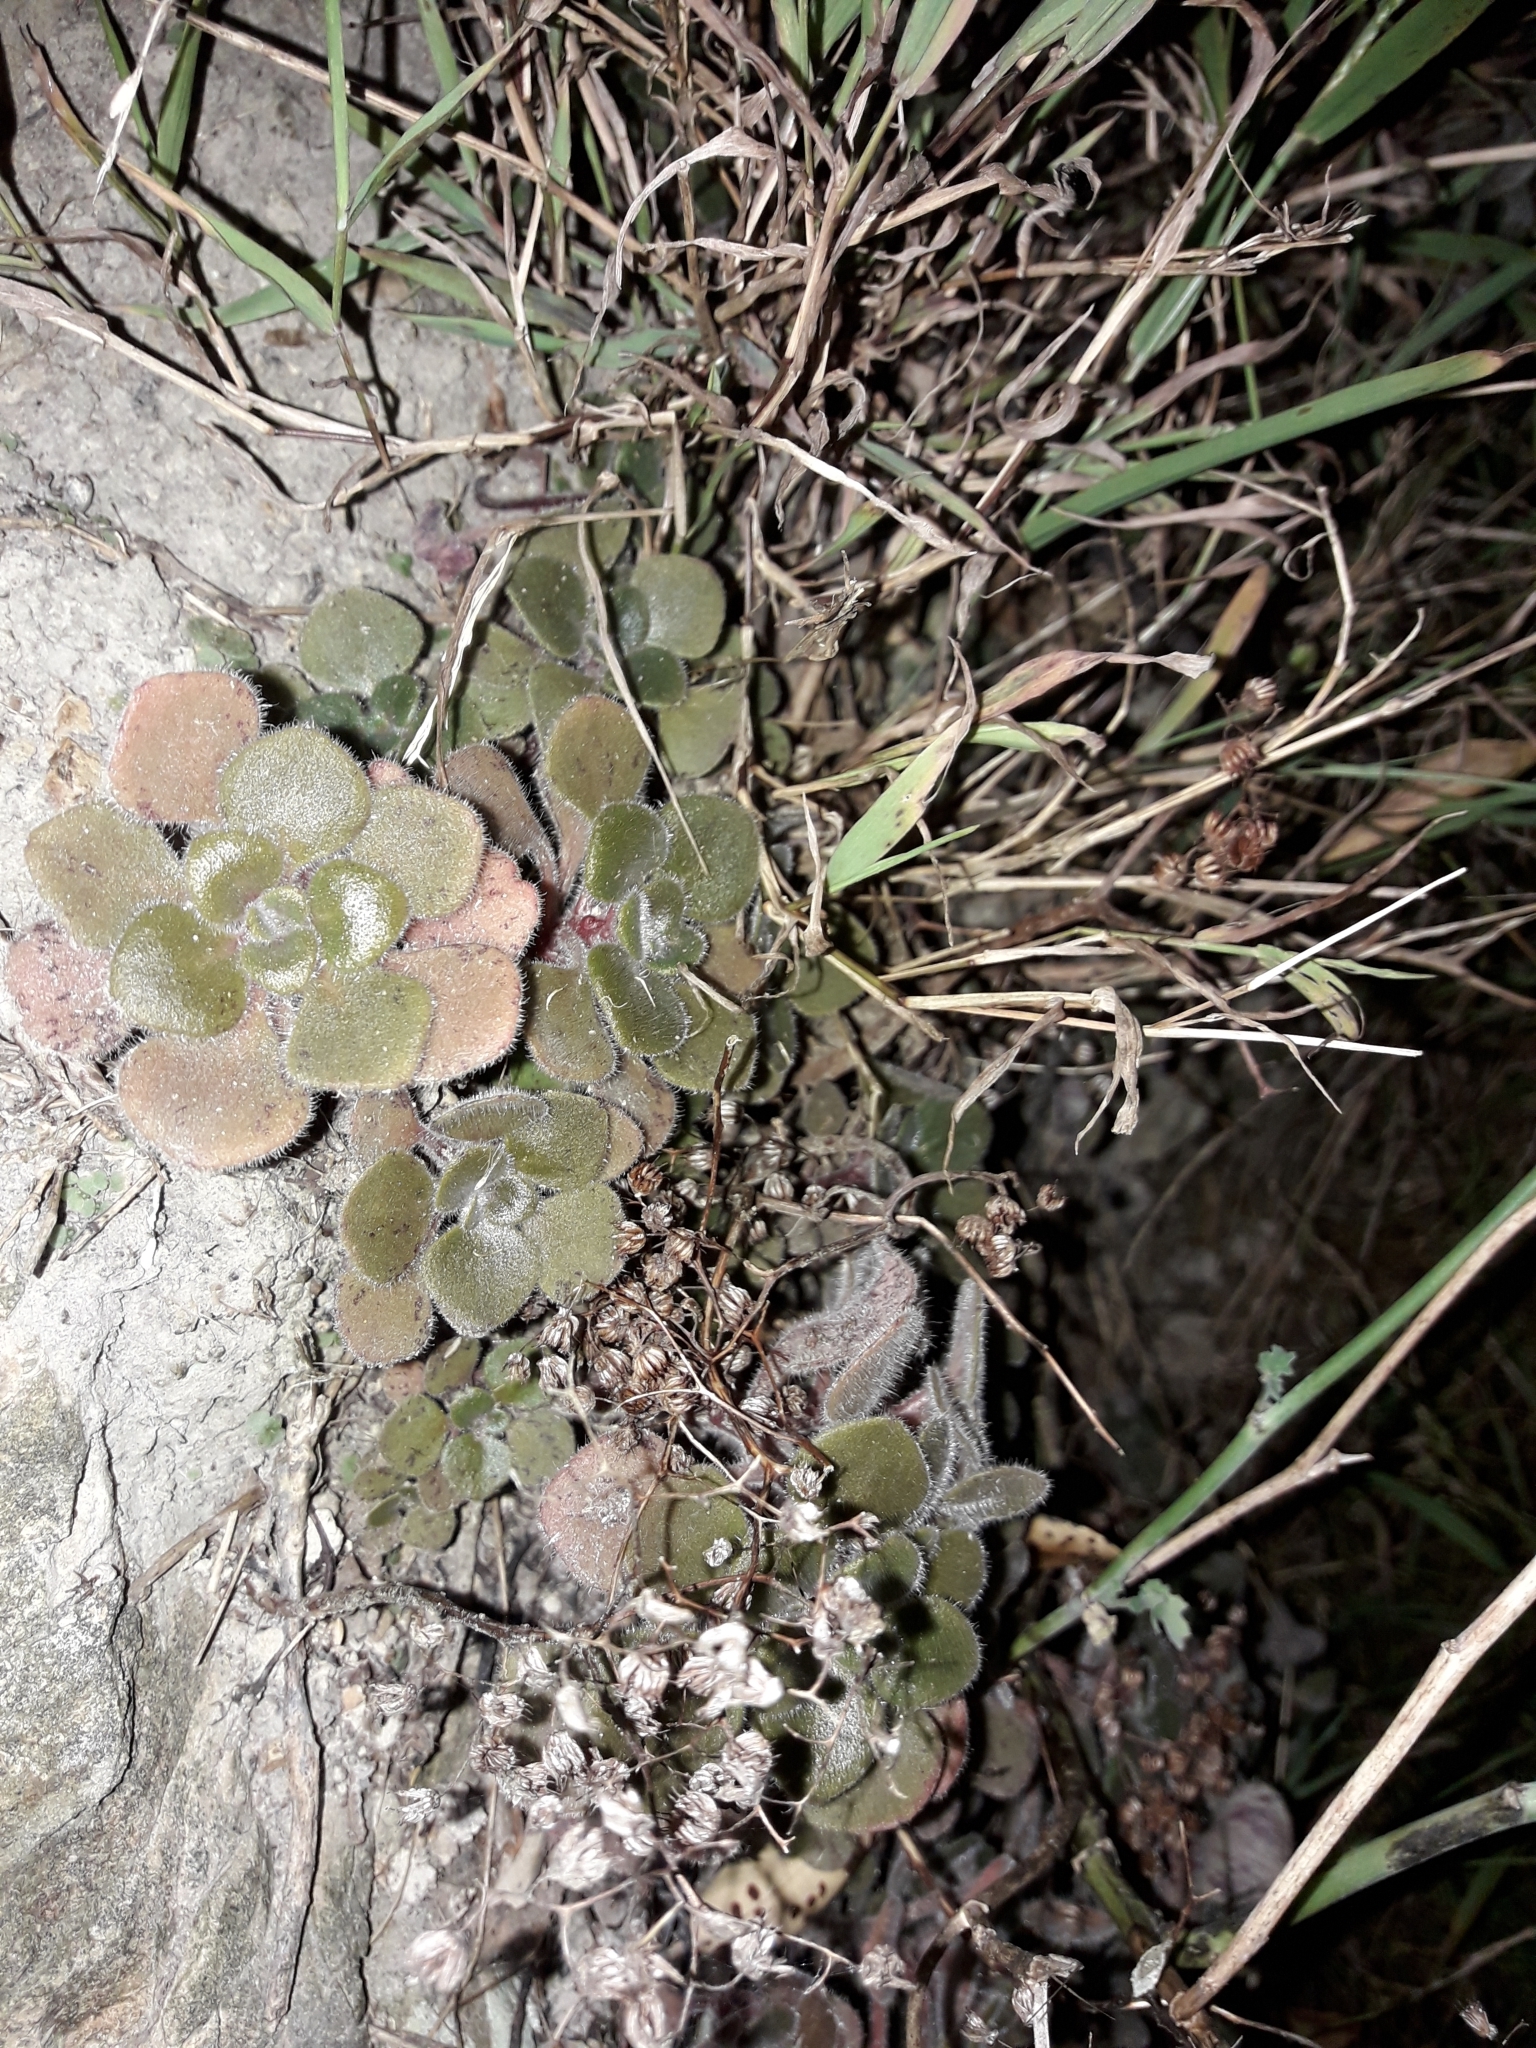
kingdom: Plantae
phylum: Tracheophyta
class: Magnoliopsida
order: Saxifragales
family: Crassulaceae
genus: Aichryson
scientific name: Aichryson laxum
